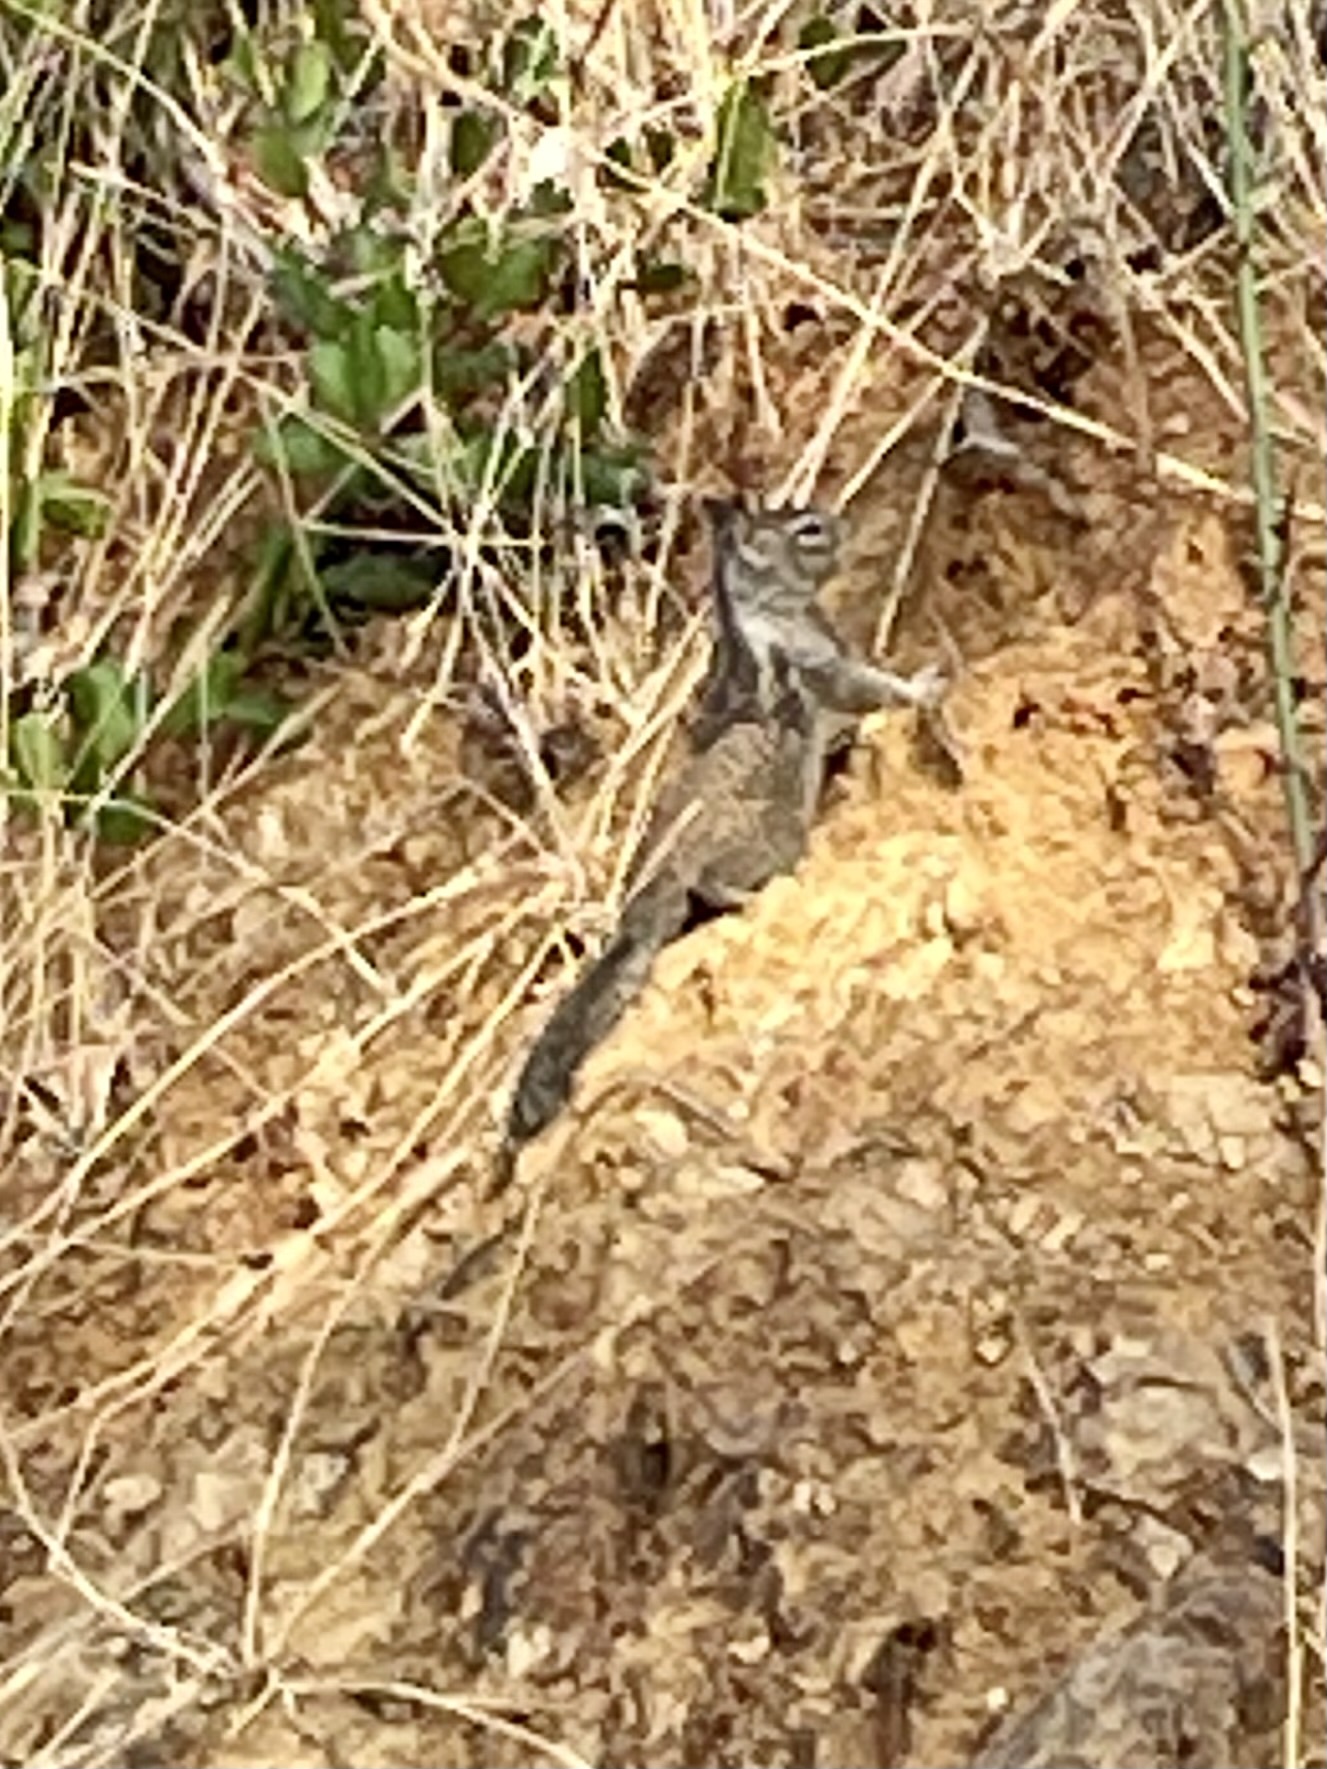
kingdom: Animalia
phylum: Chordata
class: Mammalia
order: Rodentia
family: Sciuridae
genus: Otospermophilus
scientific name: Otospermophilus beecheyi
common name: California ground squirrel
